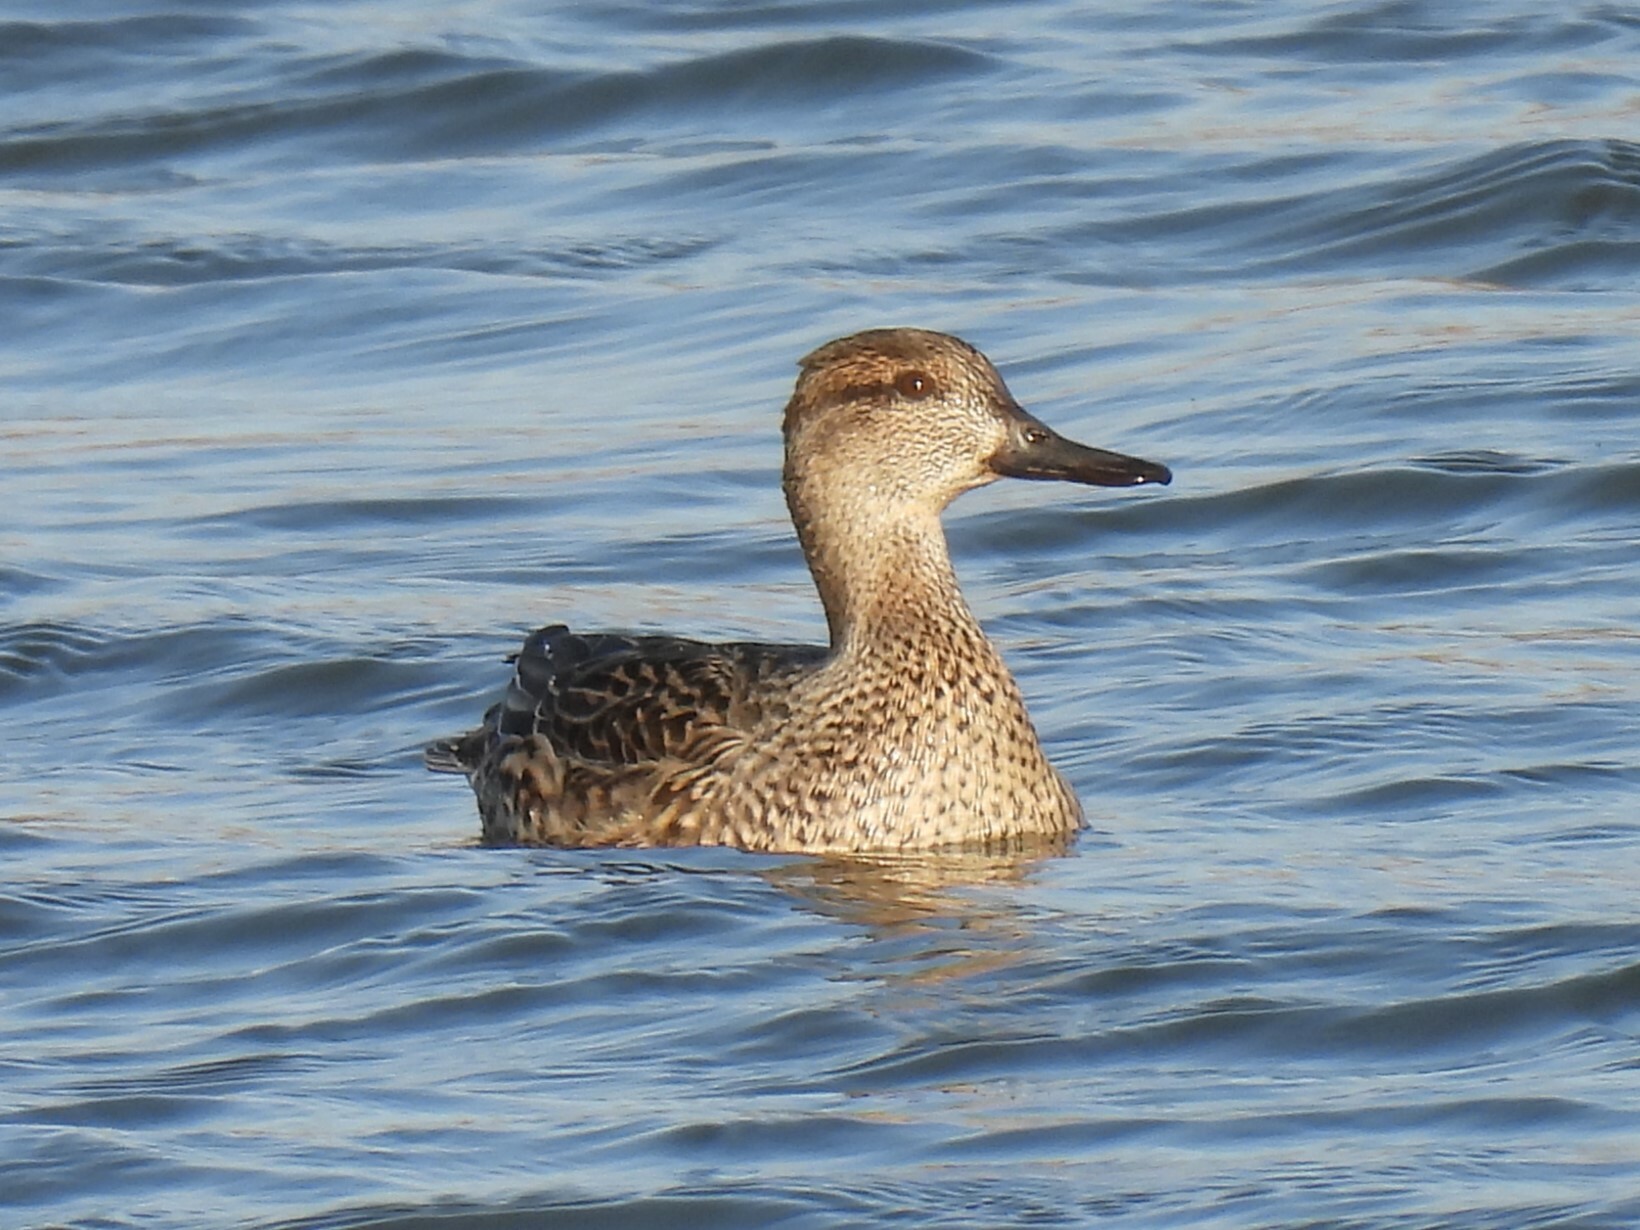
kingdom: Animalia
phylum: Chordata
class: Aves
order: Anseriformes
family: Anatidae
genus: Anas
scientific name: Anas crecca
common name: Eurasian teal
